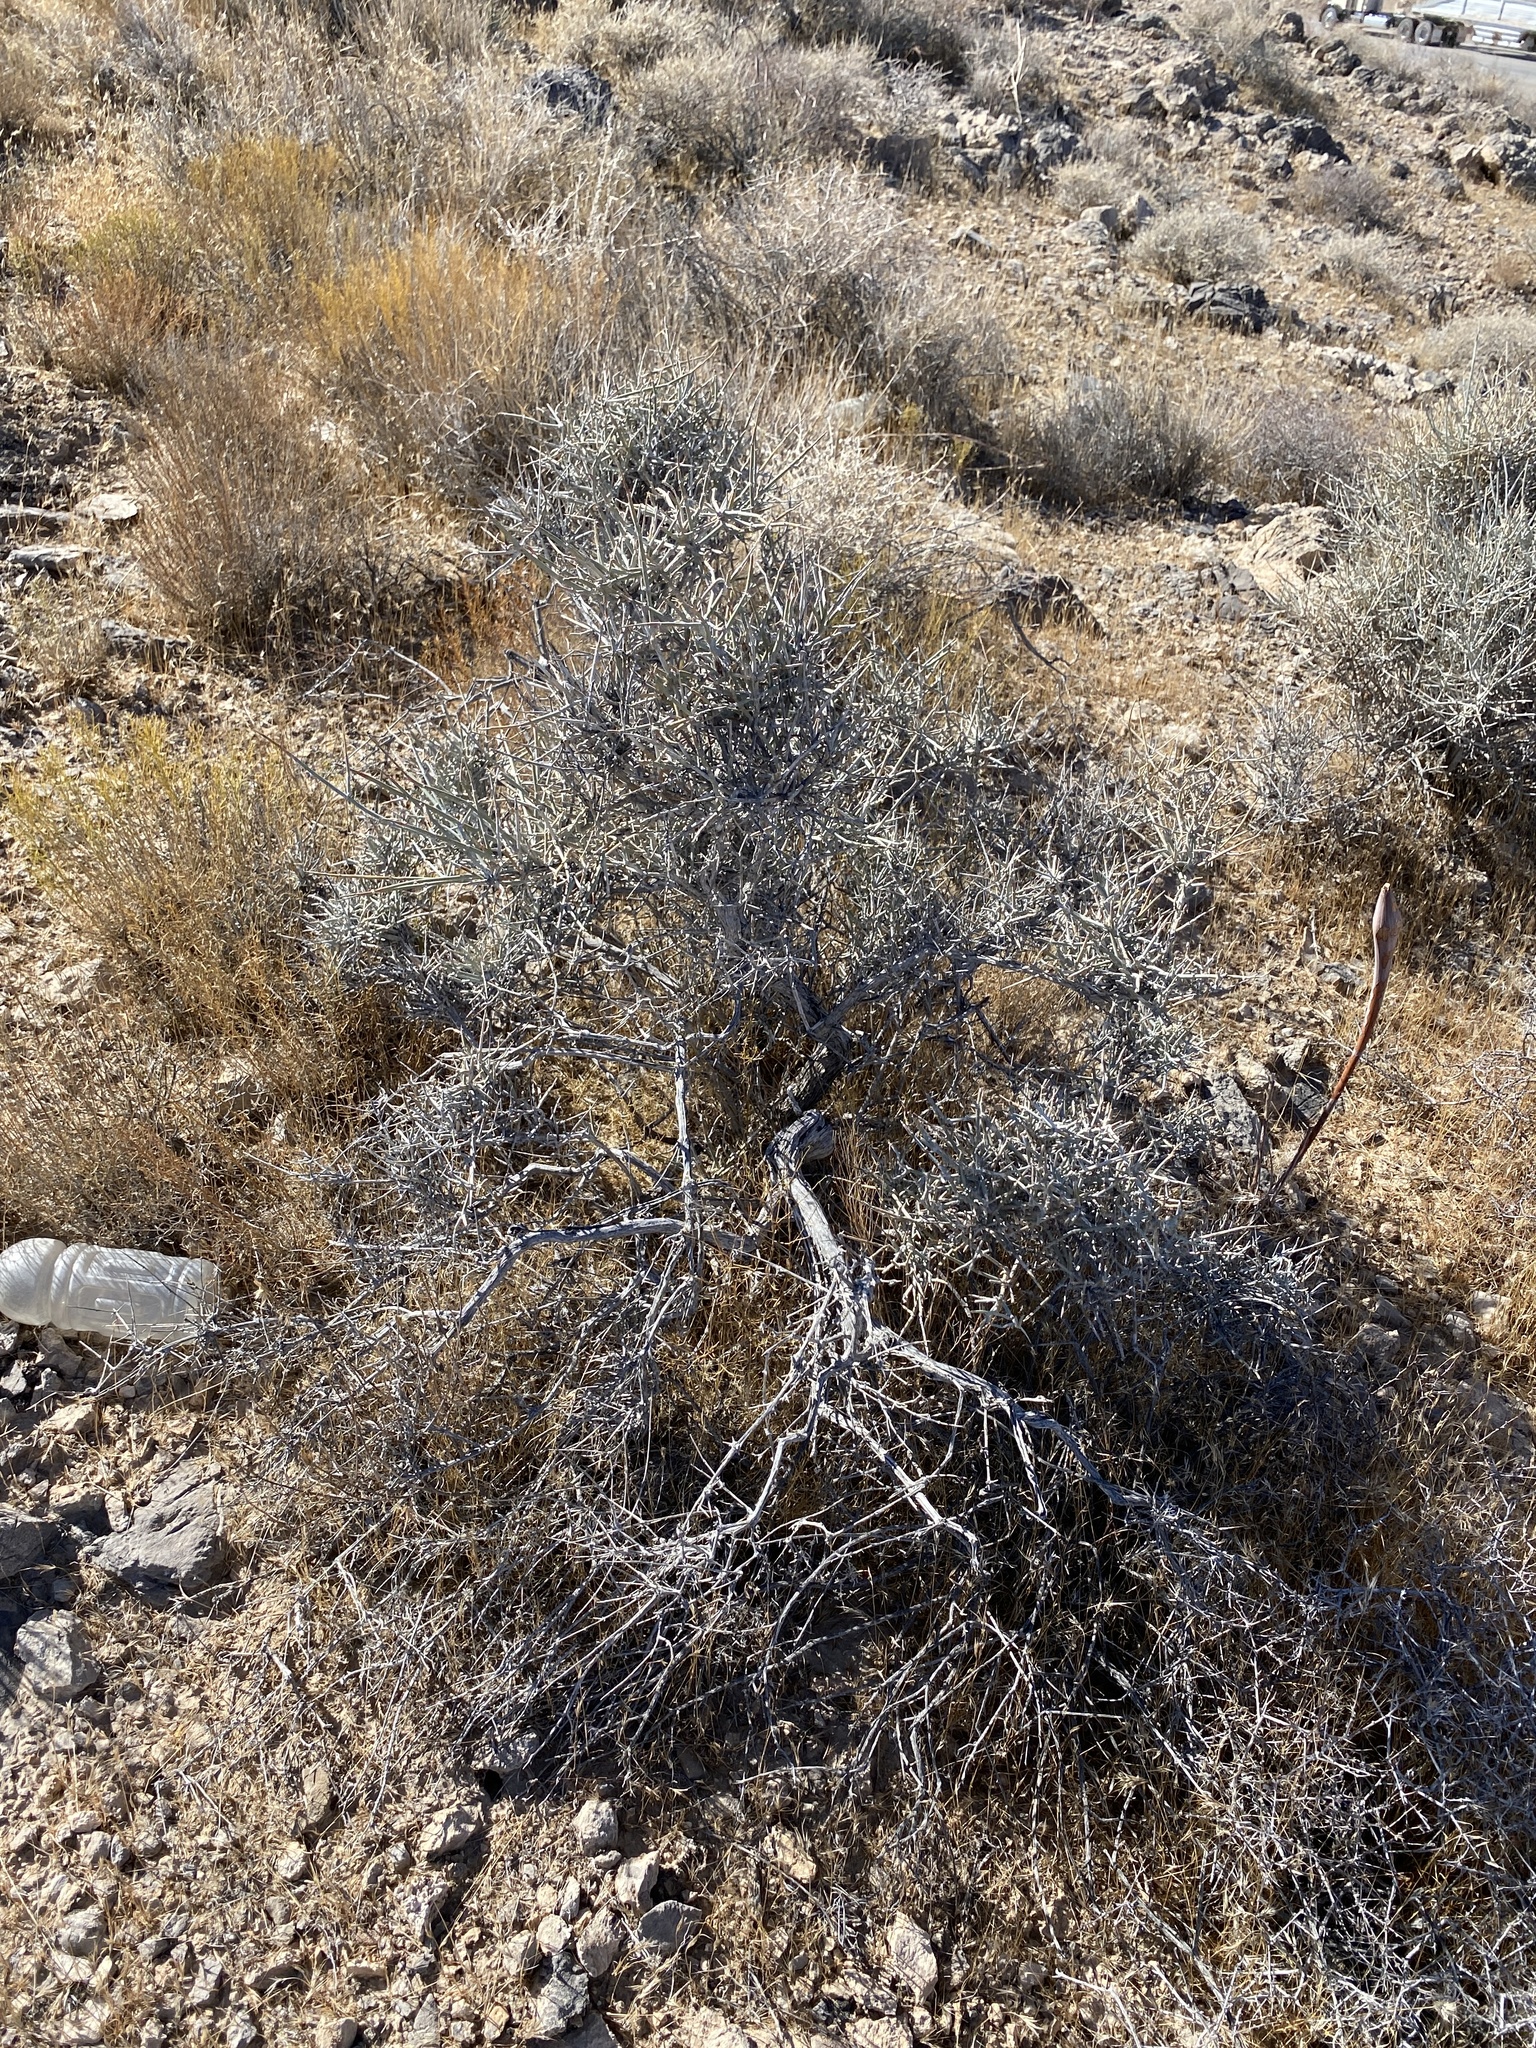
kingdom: Plantae
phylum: Tracheophyta
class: Gnetopsida
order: Ephedrales
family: Ephedraceae
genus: Ephedra
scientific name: Ephedra nevadensis
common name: Gray ephedra
